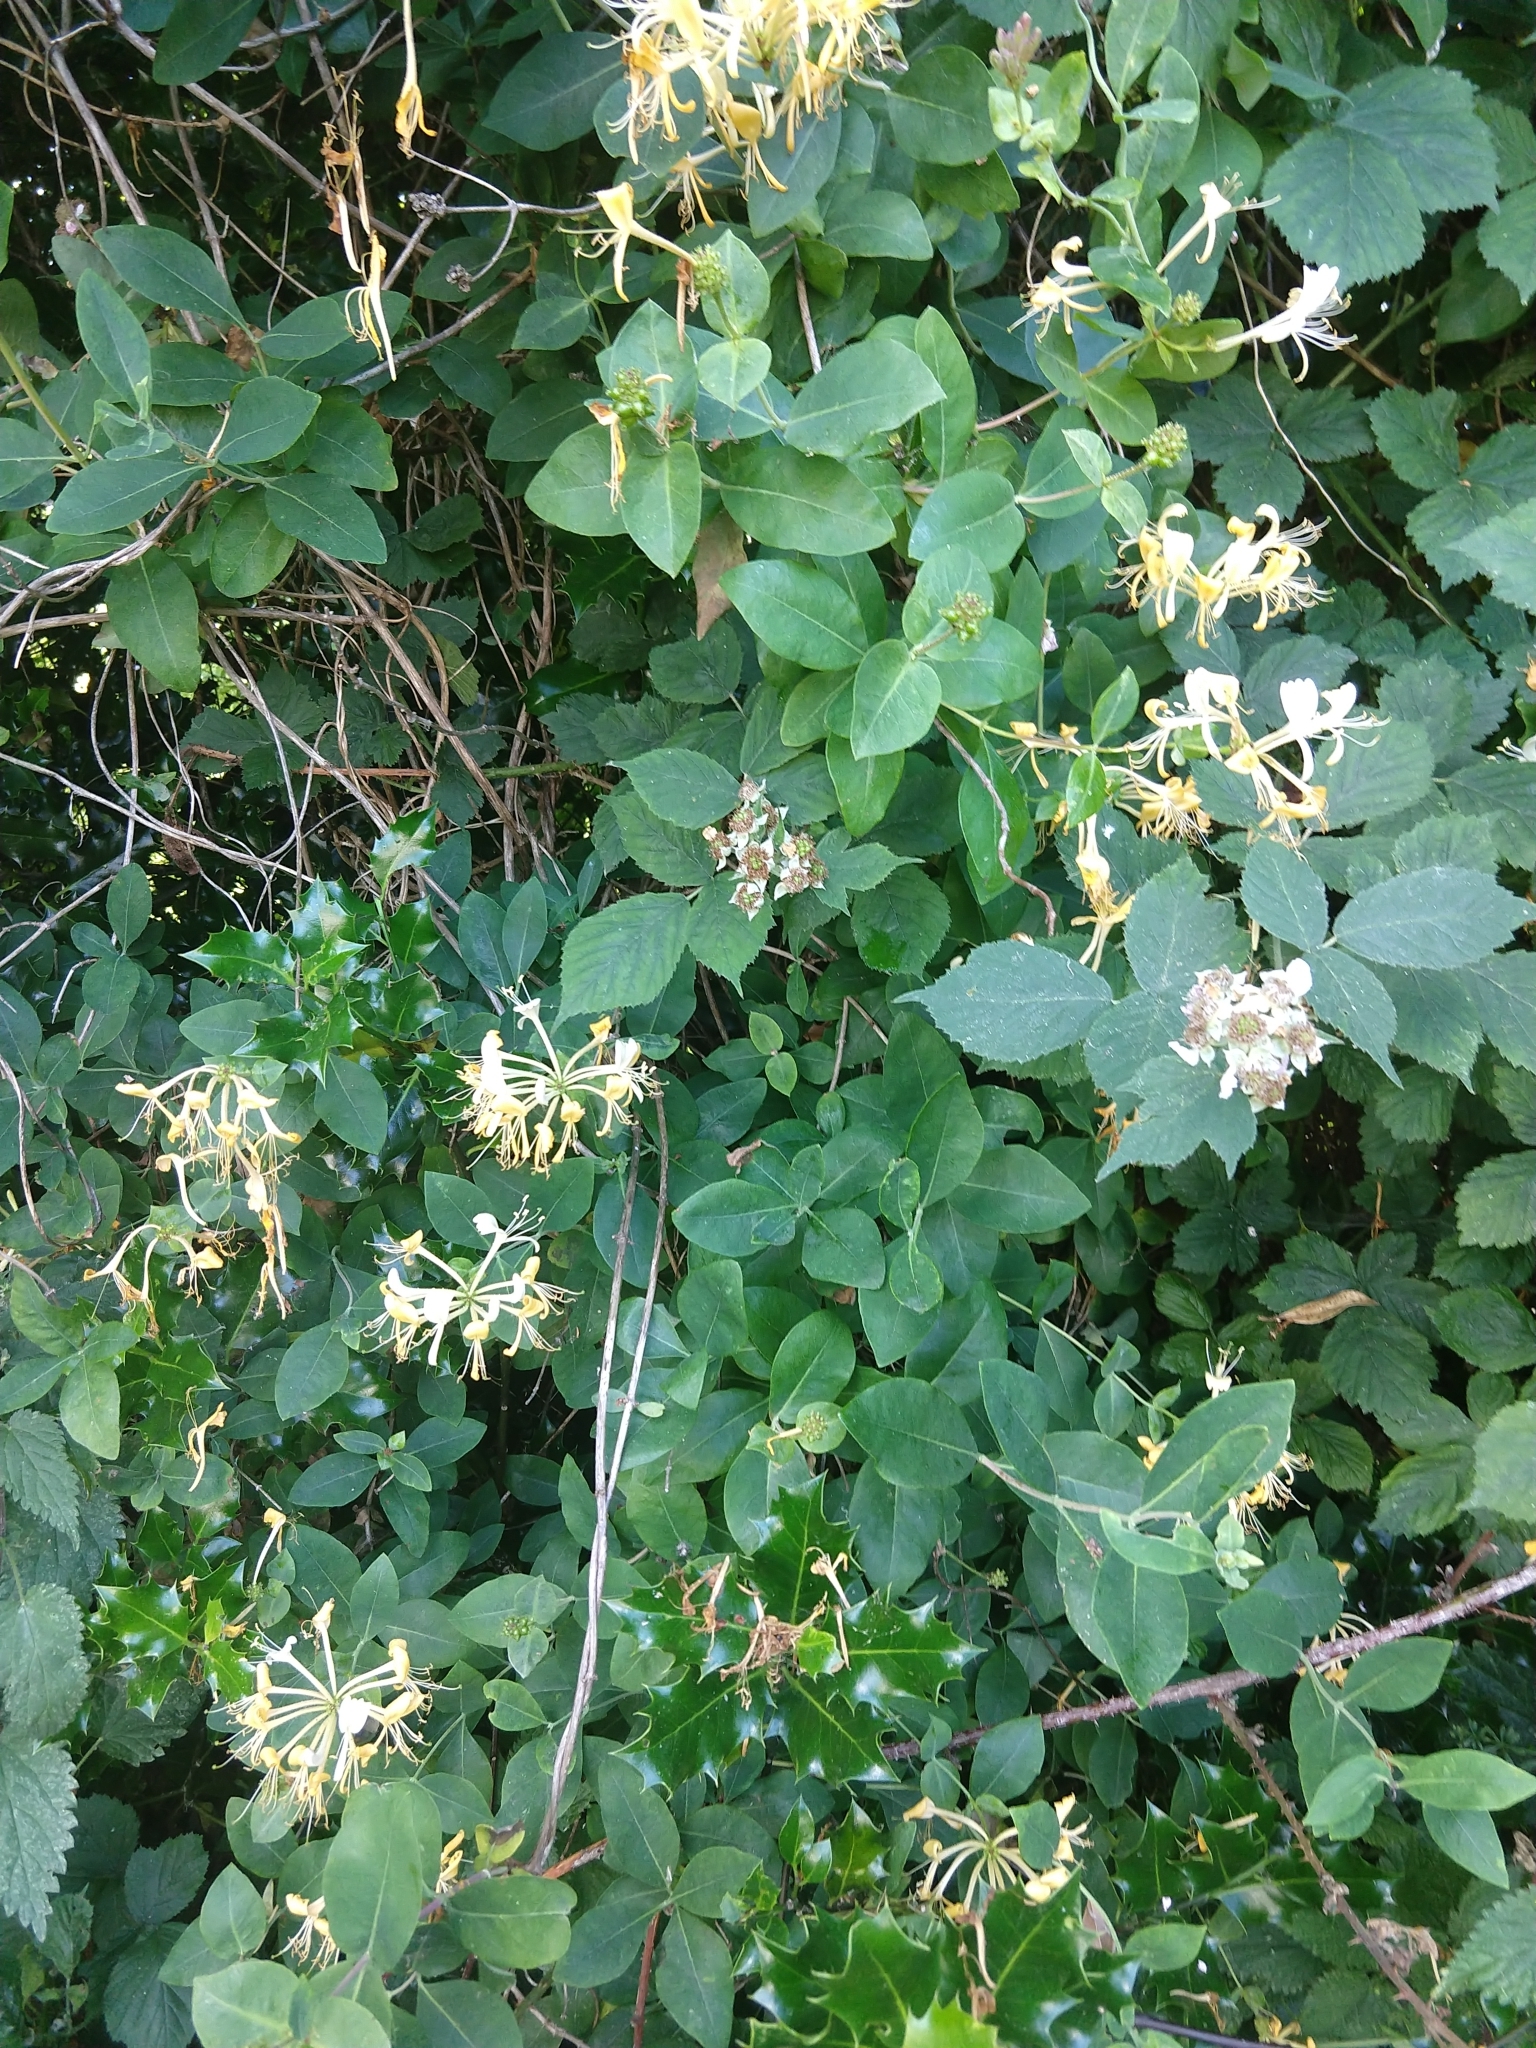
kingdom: Plantae
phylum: Tracheophyta
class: Magnoliopsida
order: Dipsacales
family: Caprifoliaceae
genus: Lonicera
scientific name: Lonicera periclymenum
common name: European honeysuckle
